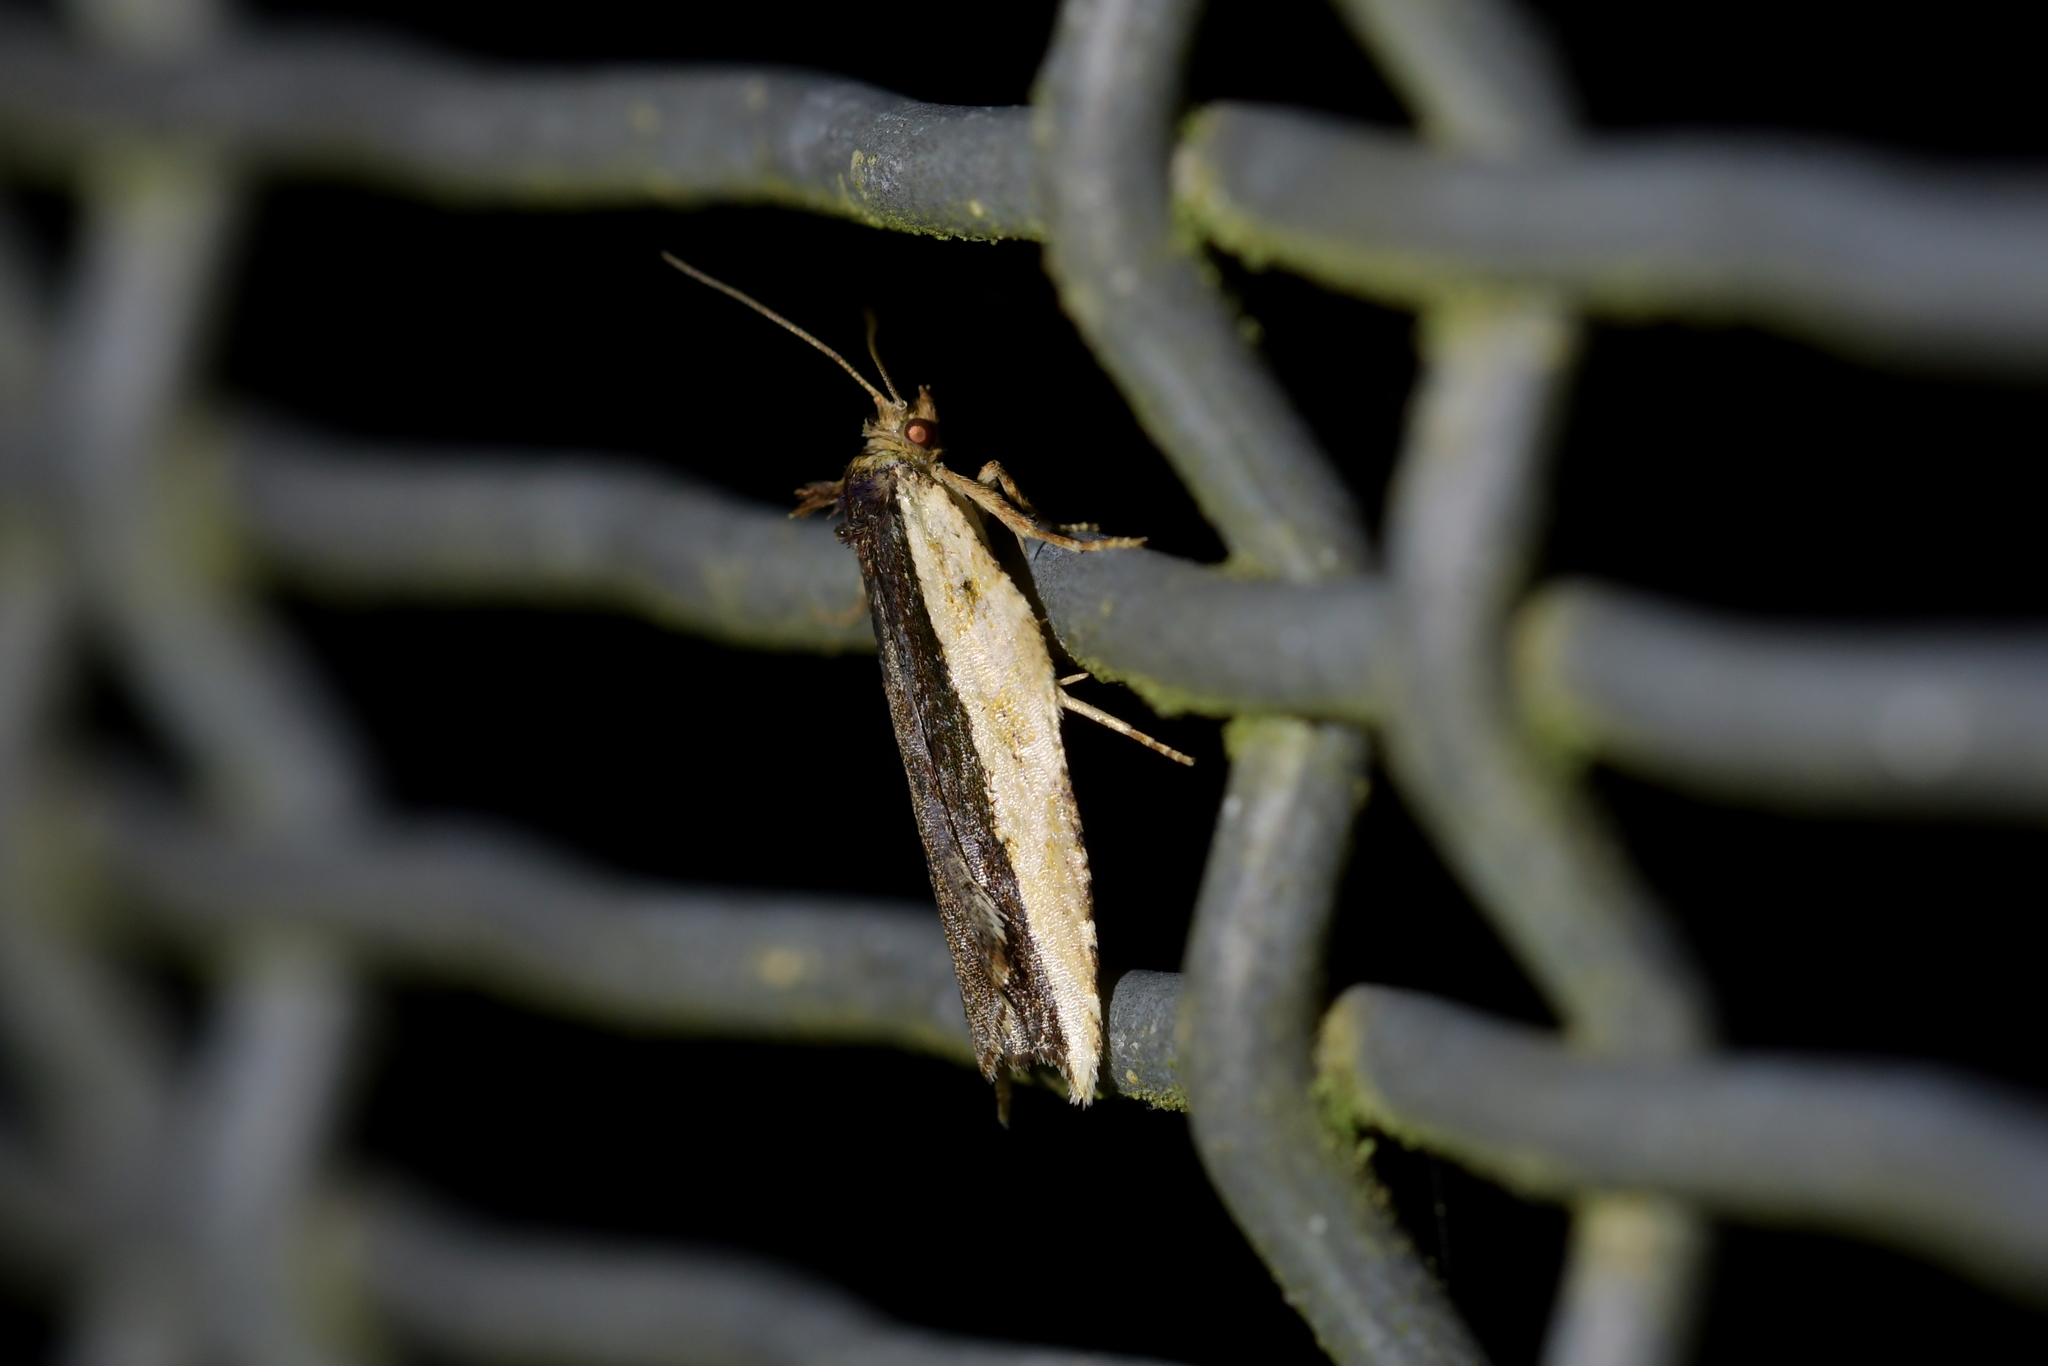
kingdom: Animalia
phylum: Arthropoda
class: Insecta
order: Lepidoptera
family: Tortricidae
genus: Epalxiphora
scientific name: Epalxiphora axenana
